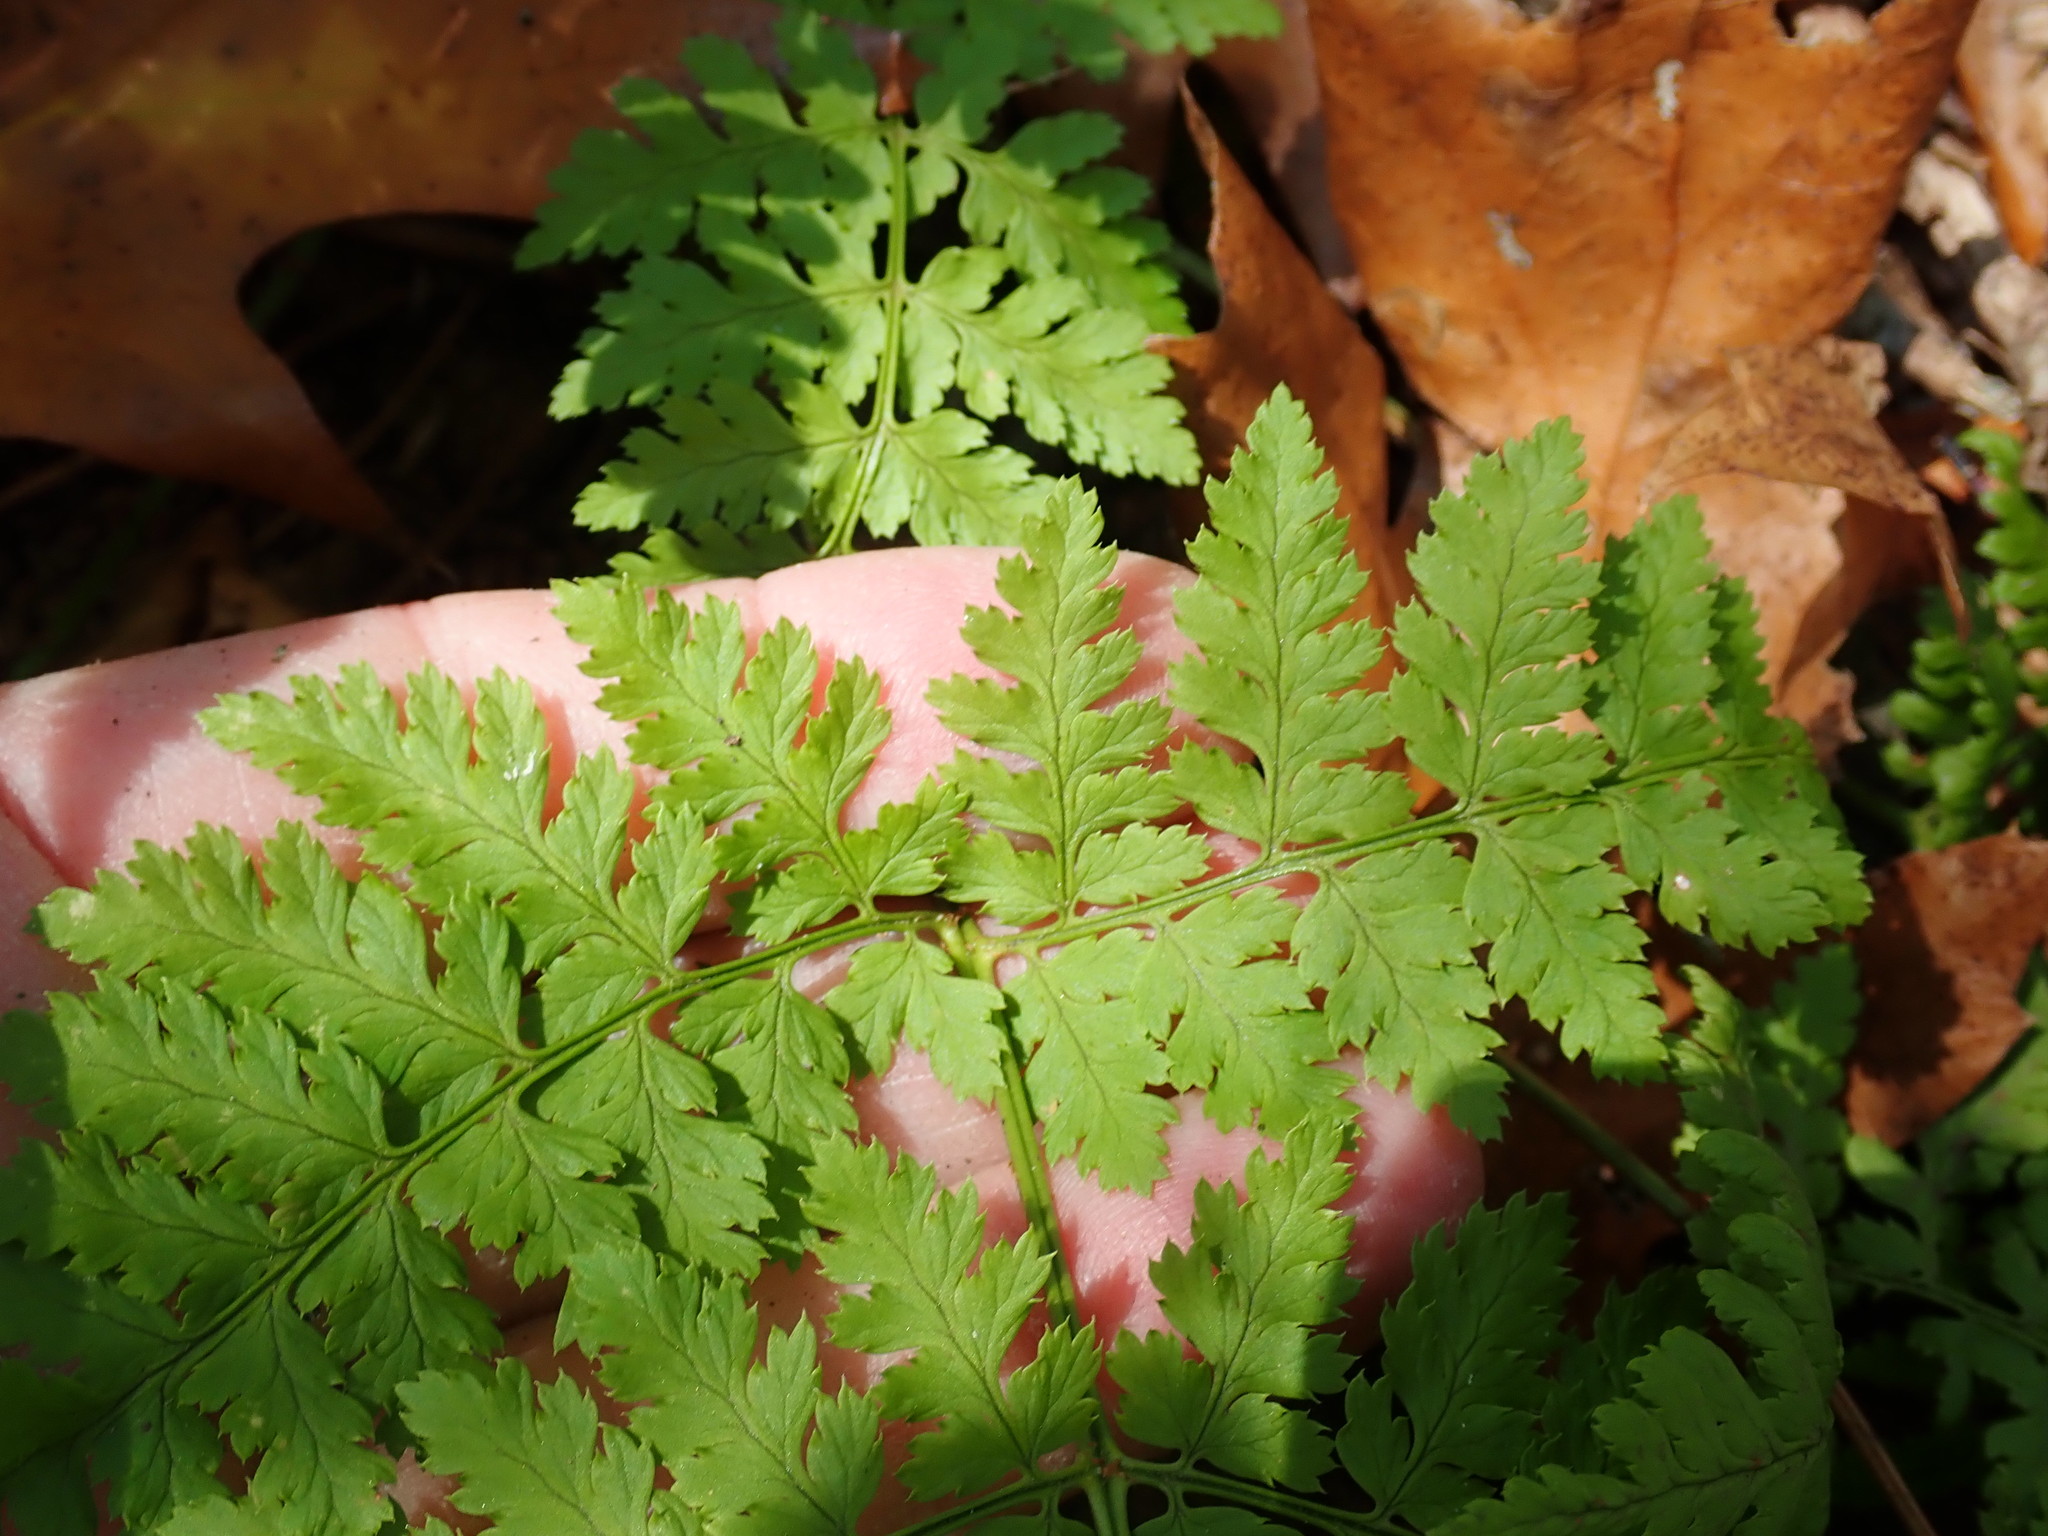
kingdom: Plantae
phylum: Tracheophyta
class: Polypodiopsida
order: Polypodiales
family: Dryopteridaceae
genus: Dryopteris
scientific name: Dryopteris intermedia
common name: Evergreen wood fern
